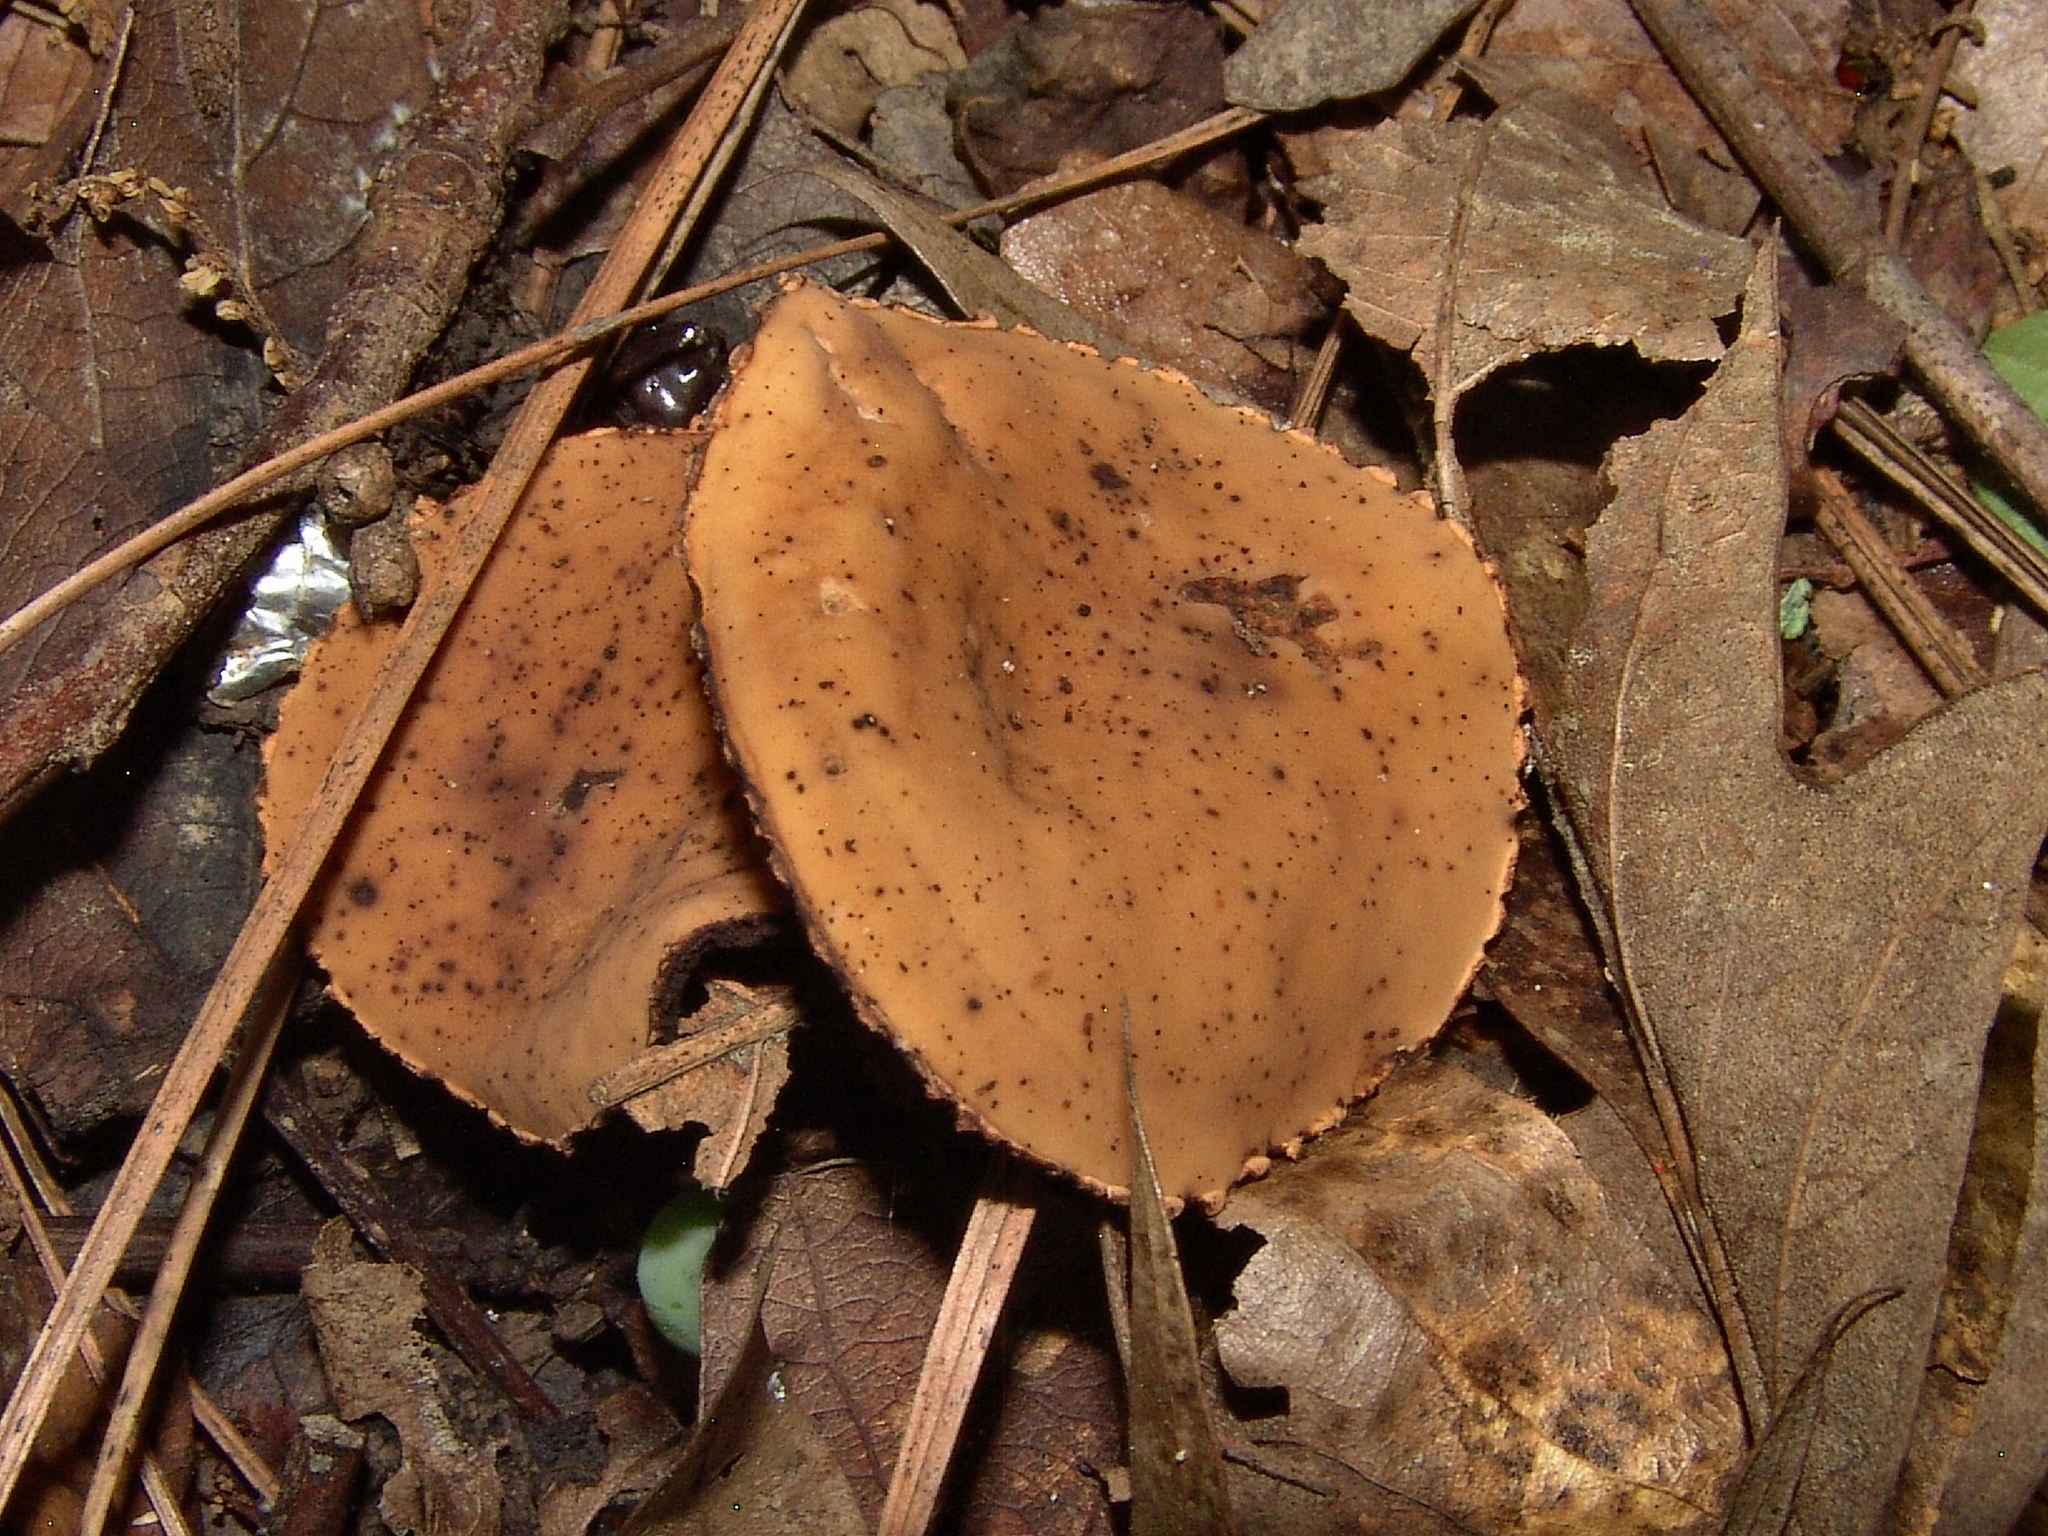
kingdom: Fungi
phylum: Ascomycota
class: Pezizomycetes
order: Pezizales
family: Sarcosomataceae
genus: Galiella
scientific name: Galiella rufa
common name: Hairy rubber cup
